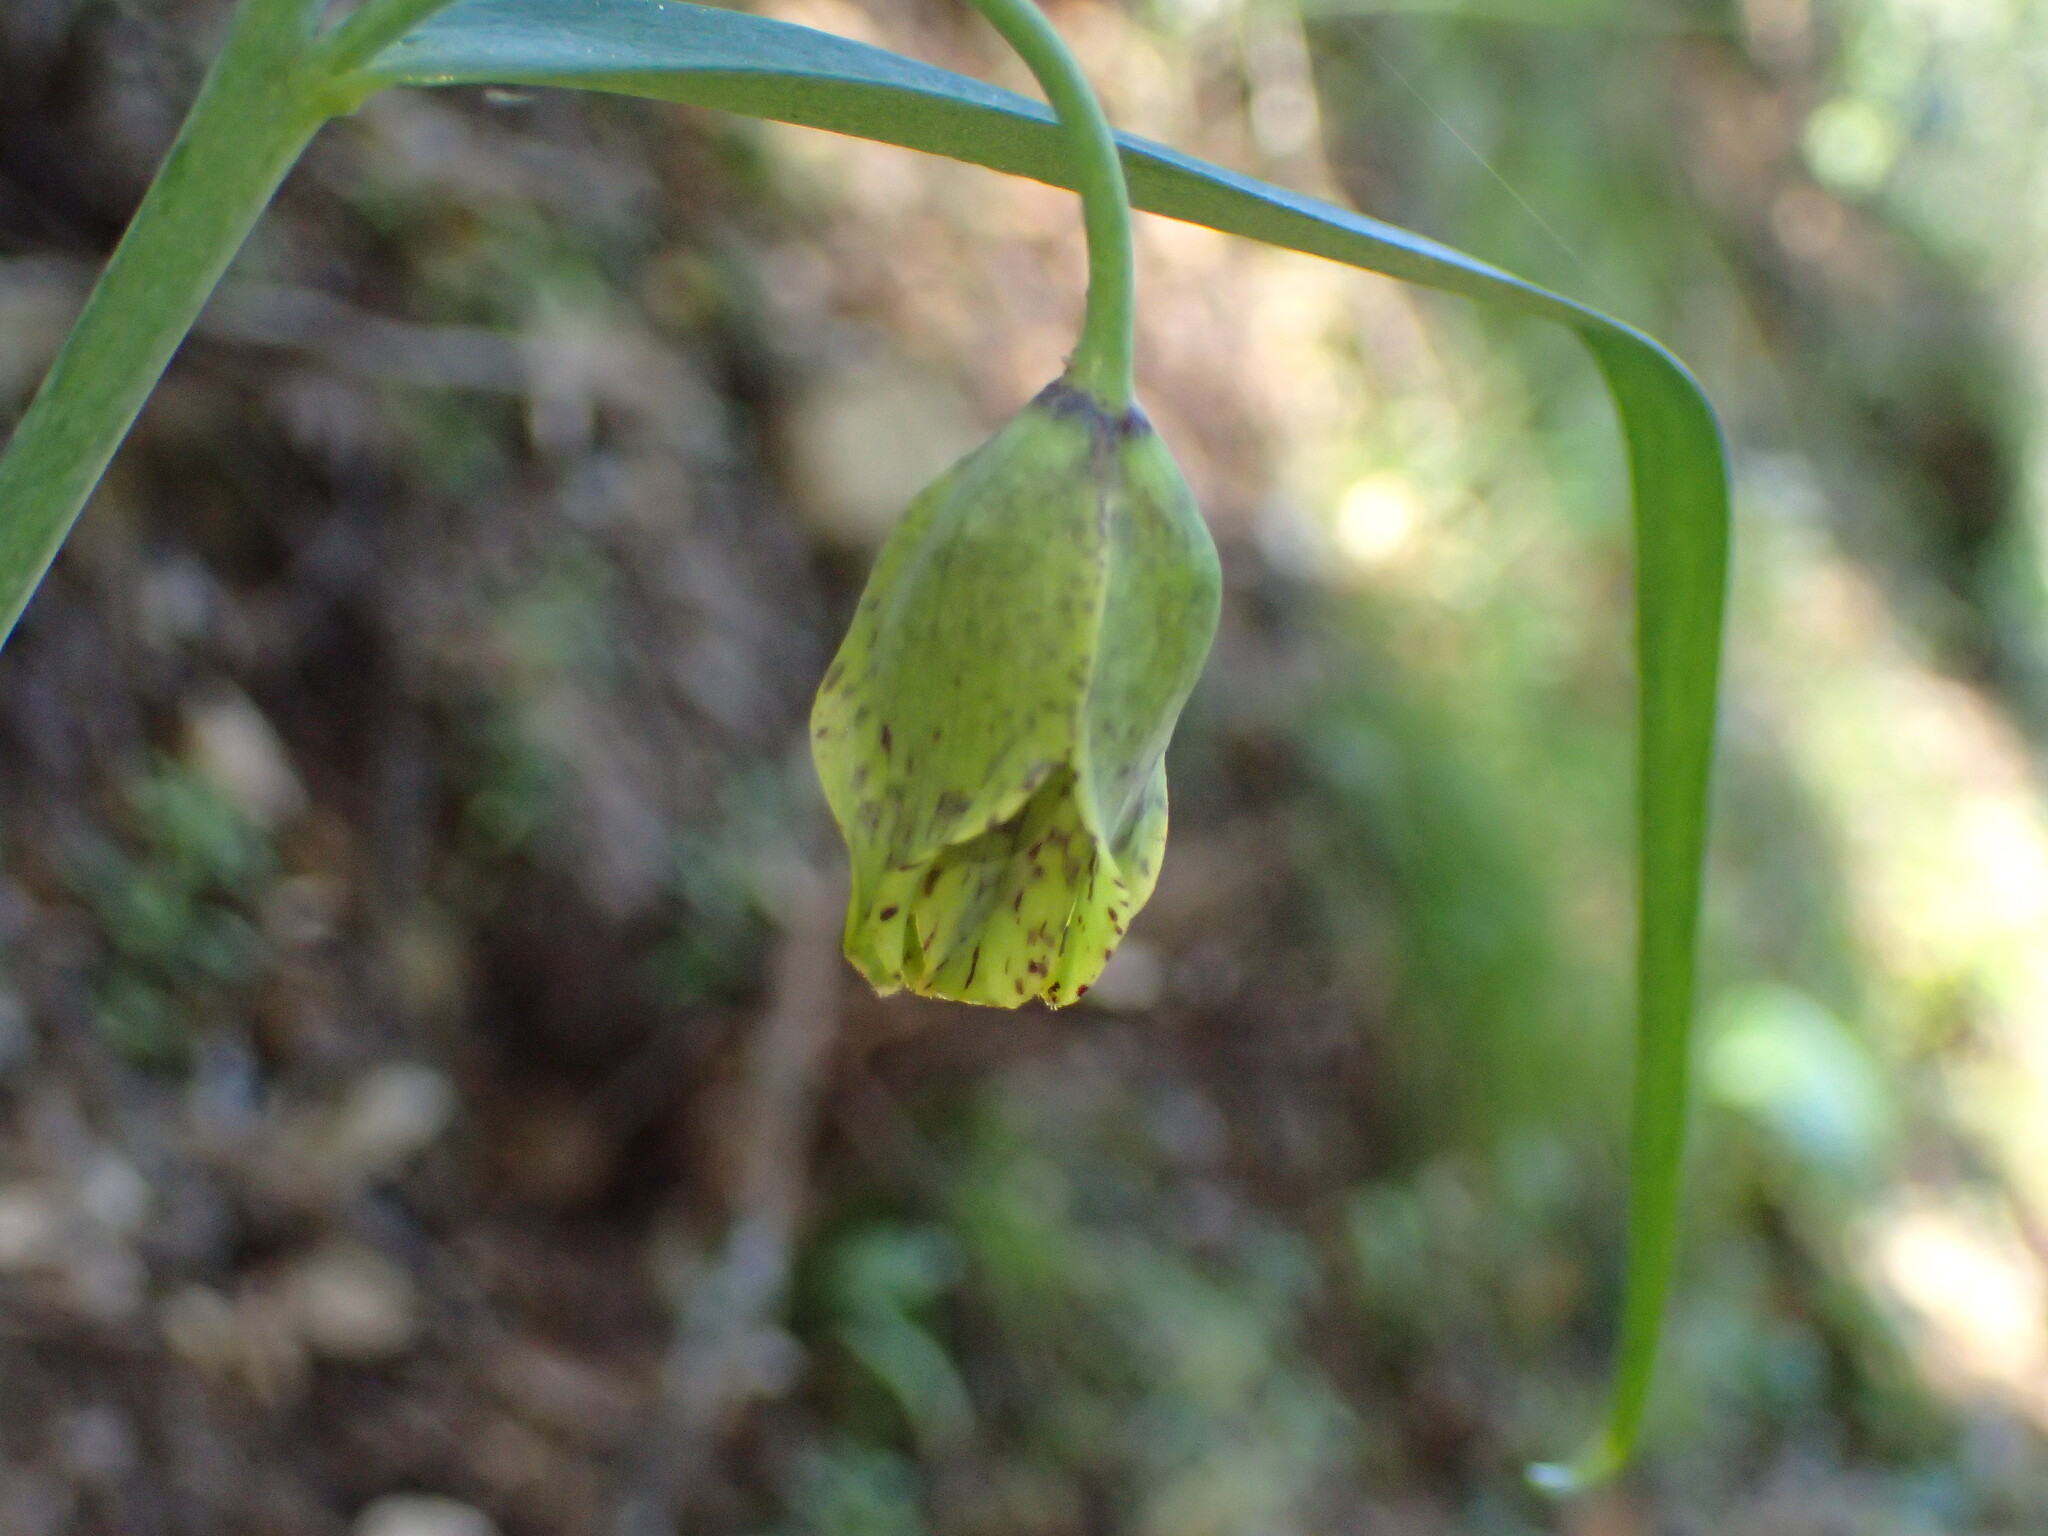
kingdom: Plantae
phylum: Tracheophyta
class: Liliopsida
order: Liliales
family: Liliaceae
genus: Fritillaria
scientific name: Fritillaria ojaiensis
